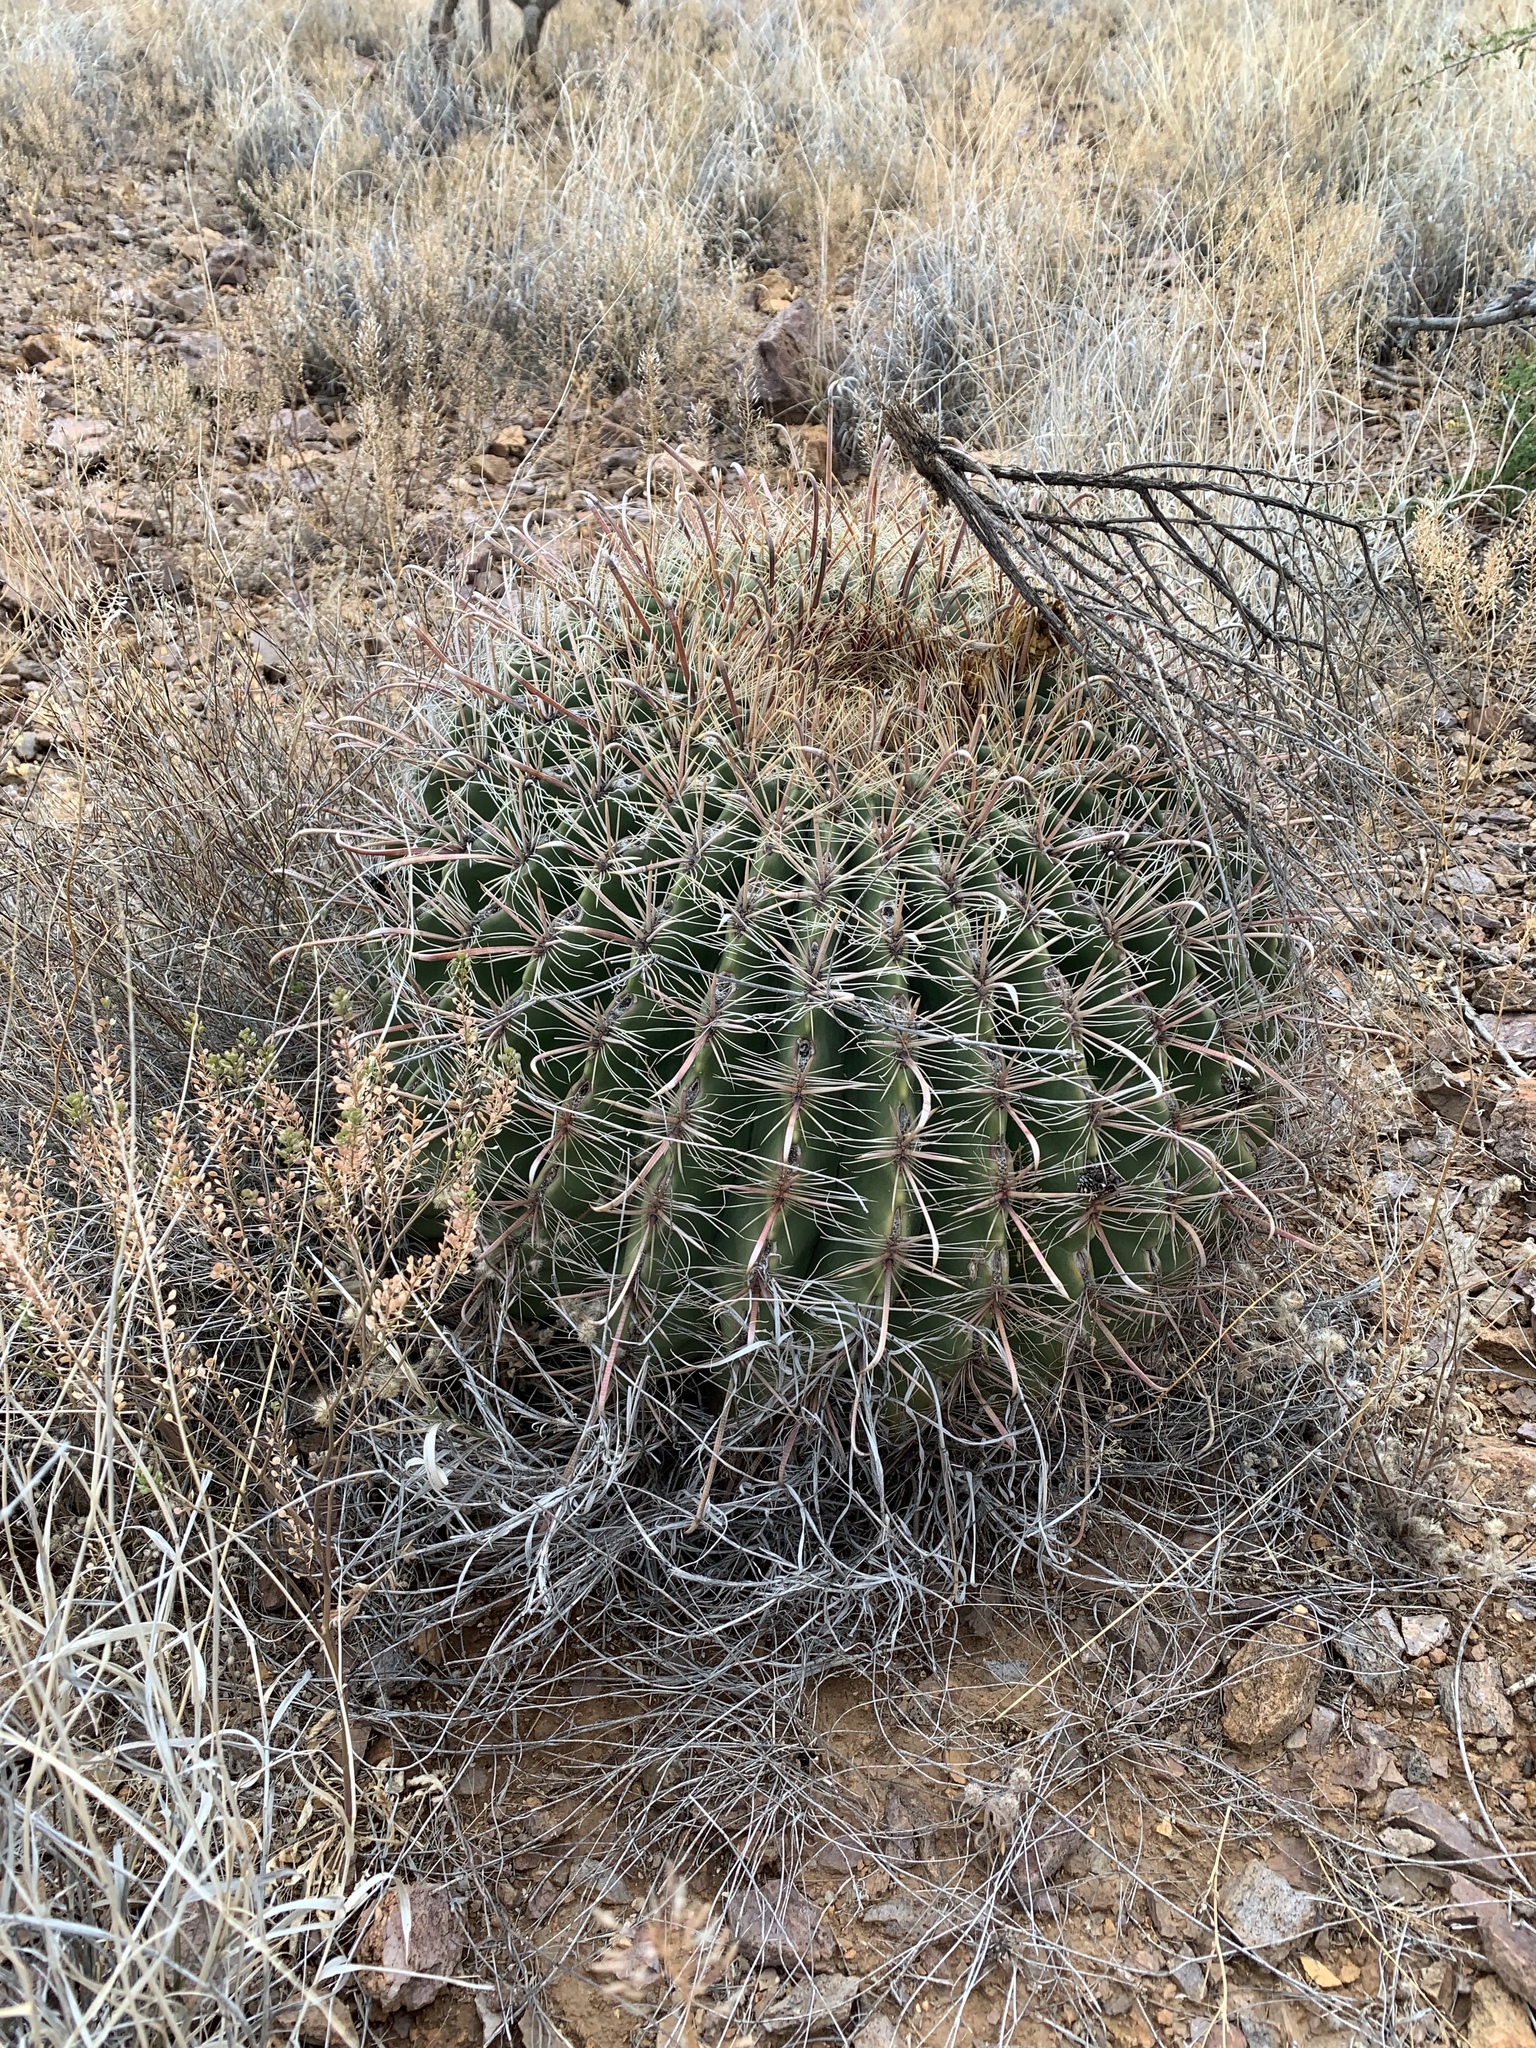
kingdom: Plantae
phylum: Tracheophyta
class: Magnoliopsida
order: Caryophyllales
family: Cactaceae
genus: Ferocactus
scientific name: Ferocactus wislizeni
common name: Candy barrel cactus
